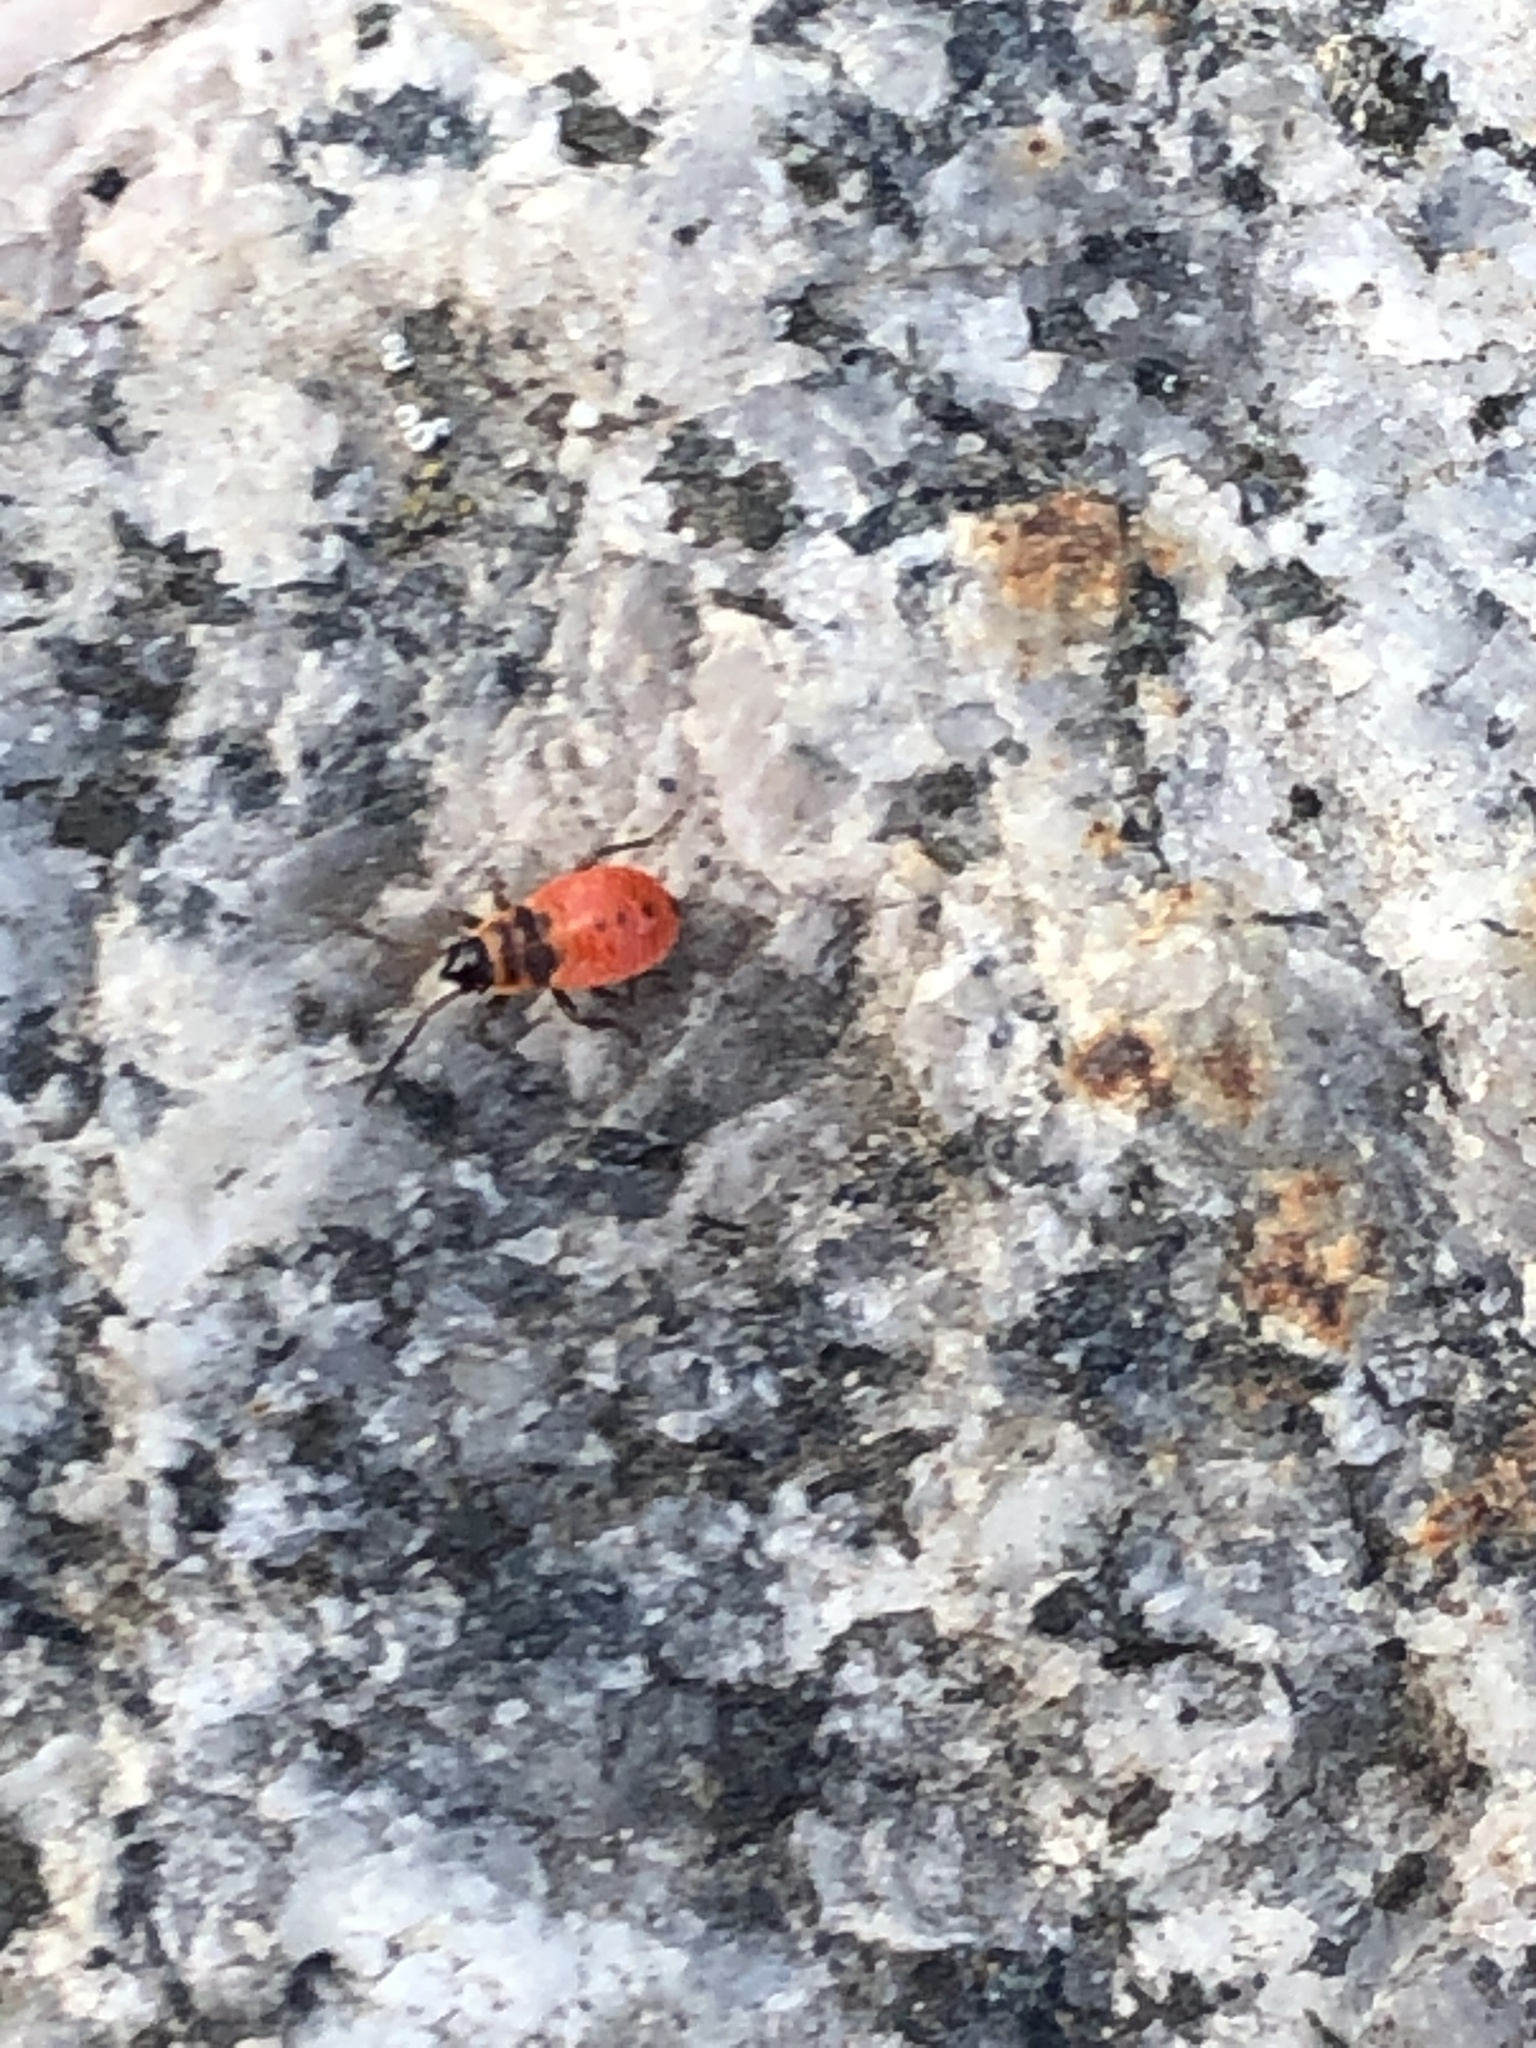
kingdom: Animalia
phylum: Arthropoda
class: Insecta
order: Hemiptera
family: Pyrrhocoridae
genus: Pyrrhocoris
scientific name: Pyrrhocoris apterus
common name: Firebug
